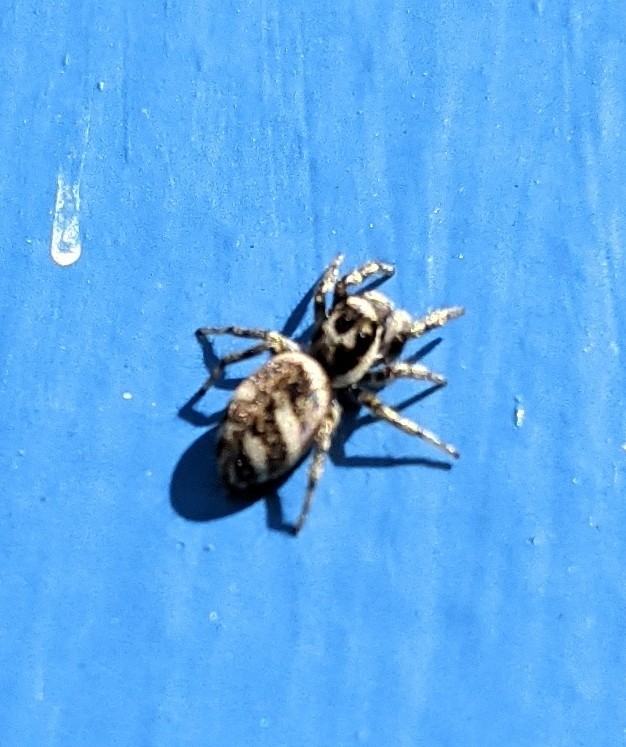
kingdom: Animalia
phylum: Arthropoda
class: Arachnida
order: Araneae
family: Salticidae
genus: Salticus
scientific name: Salticus scenicus
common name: Zebra jumper
